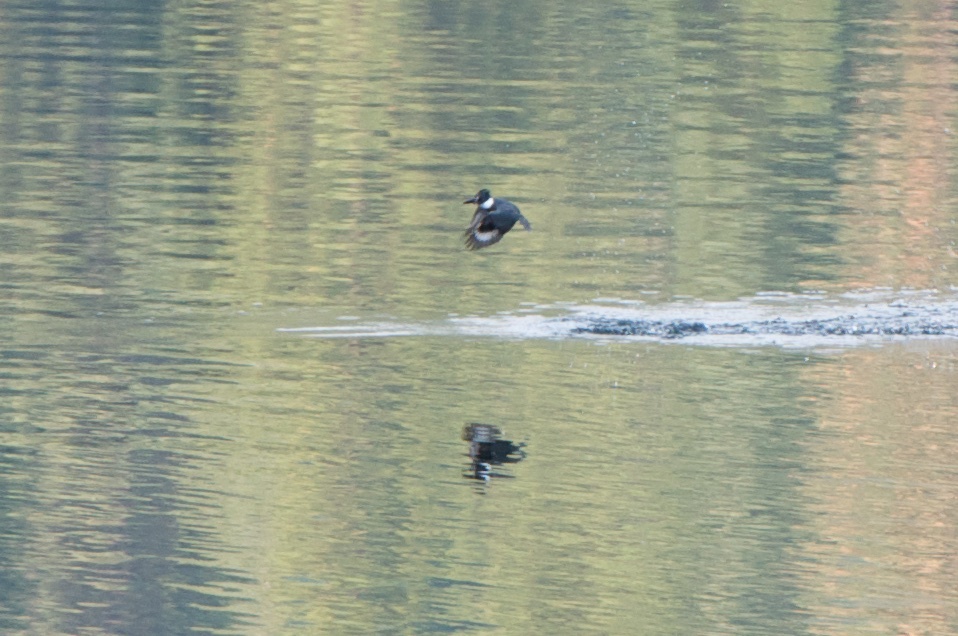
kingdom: Animalia
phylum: Chordata
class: Aves
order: Coraciiformes
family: Alcedinidae
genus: Megaceryle
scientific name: Megaceryle alcyon
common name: Belted kingfisher
